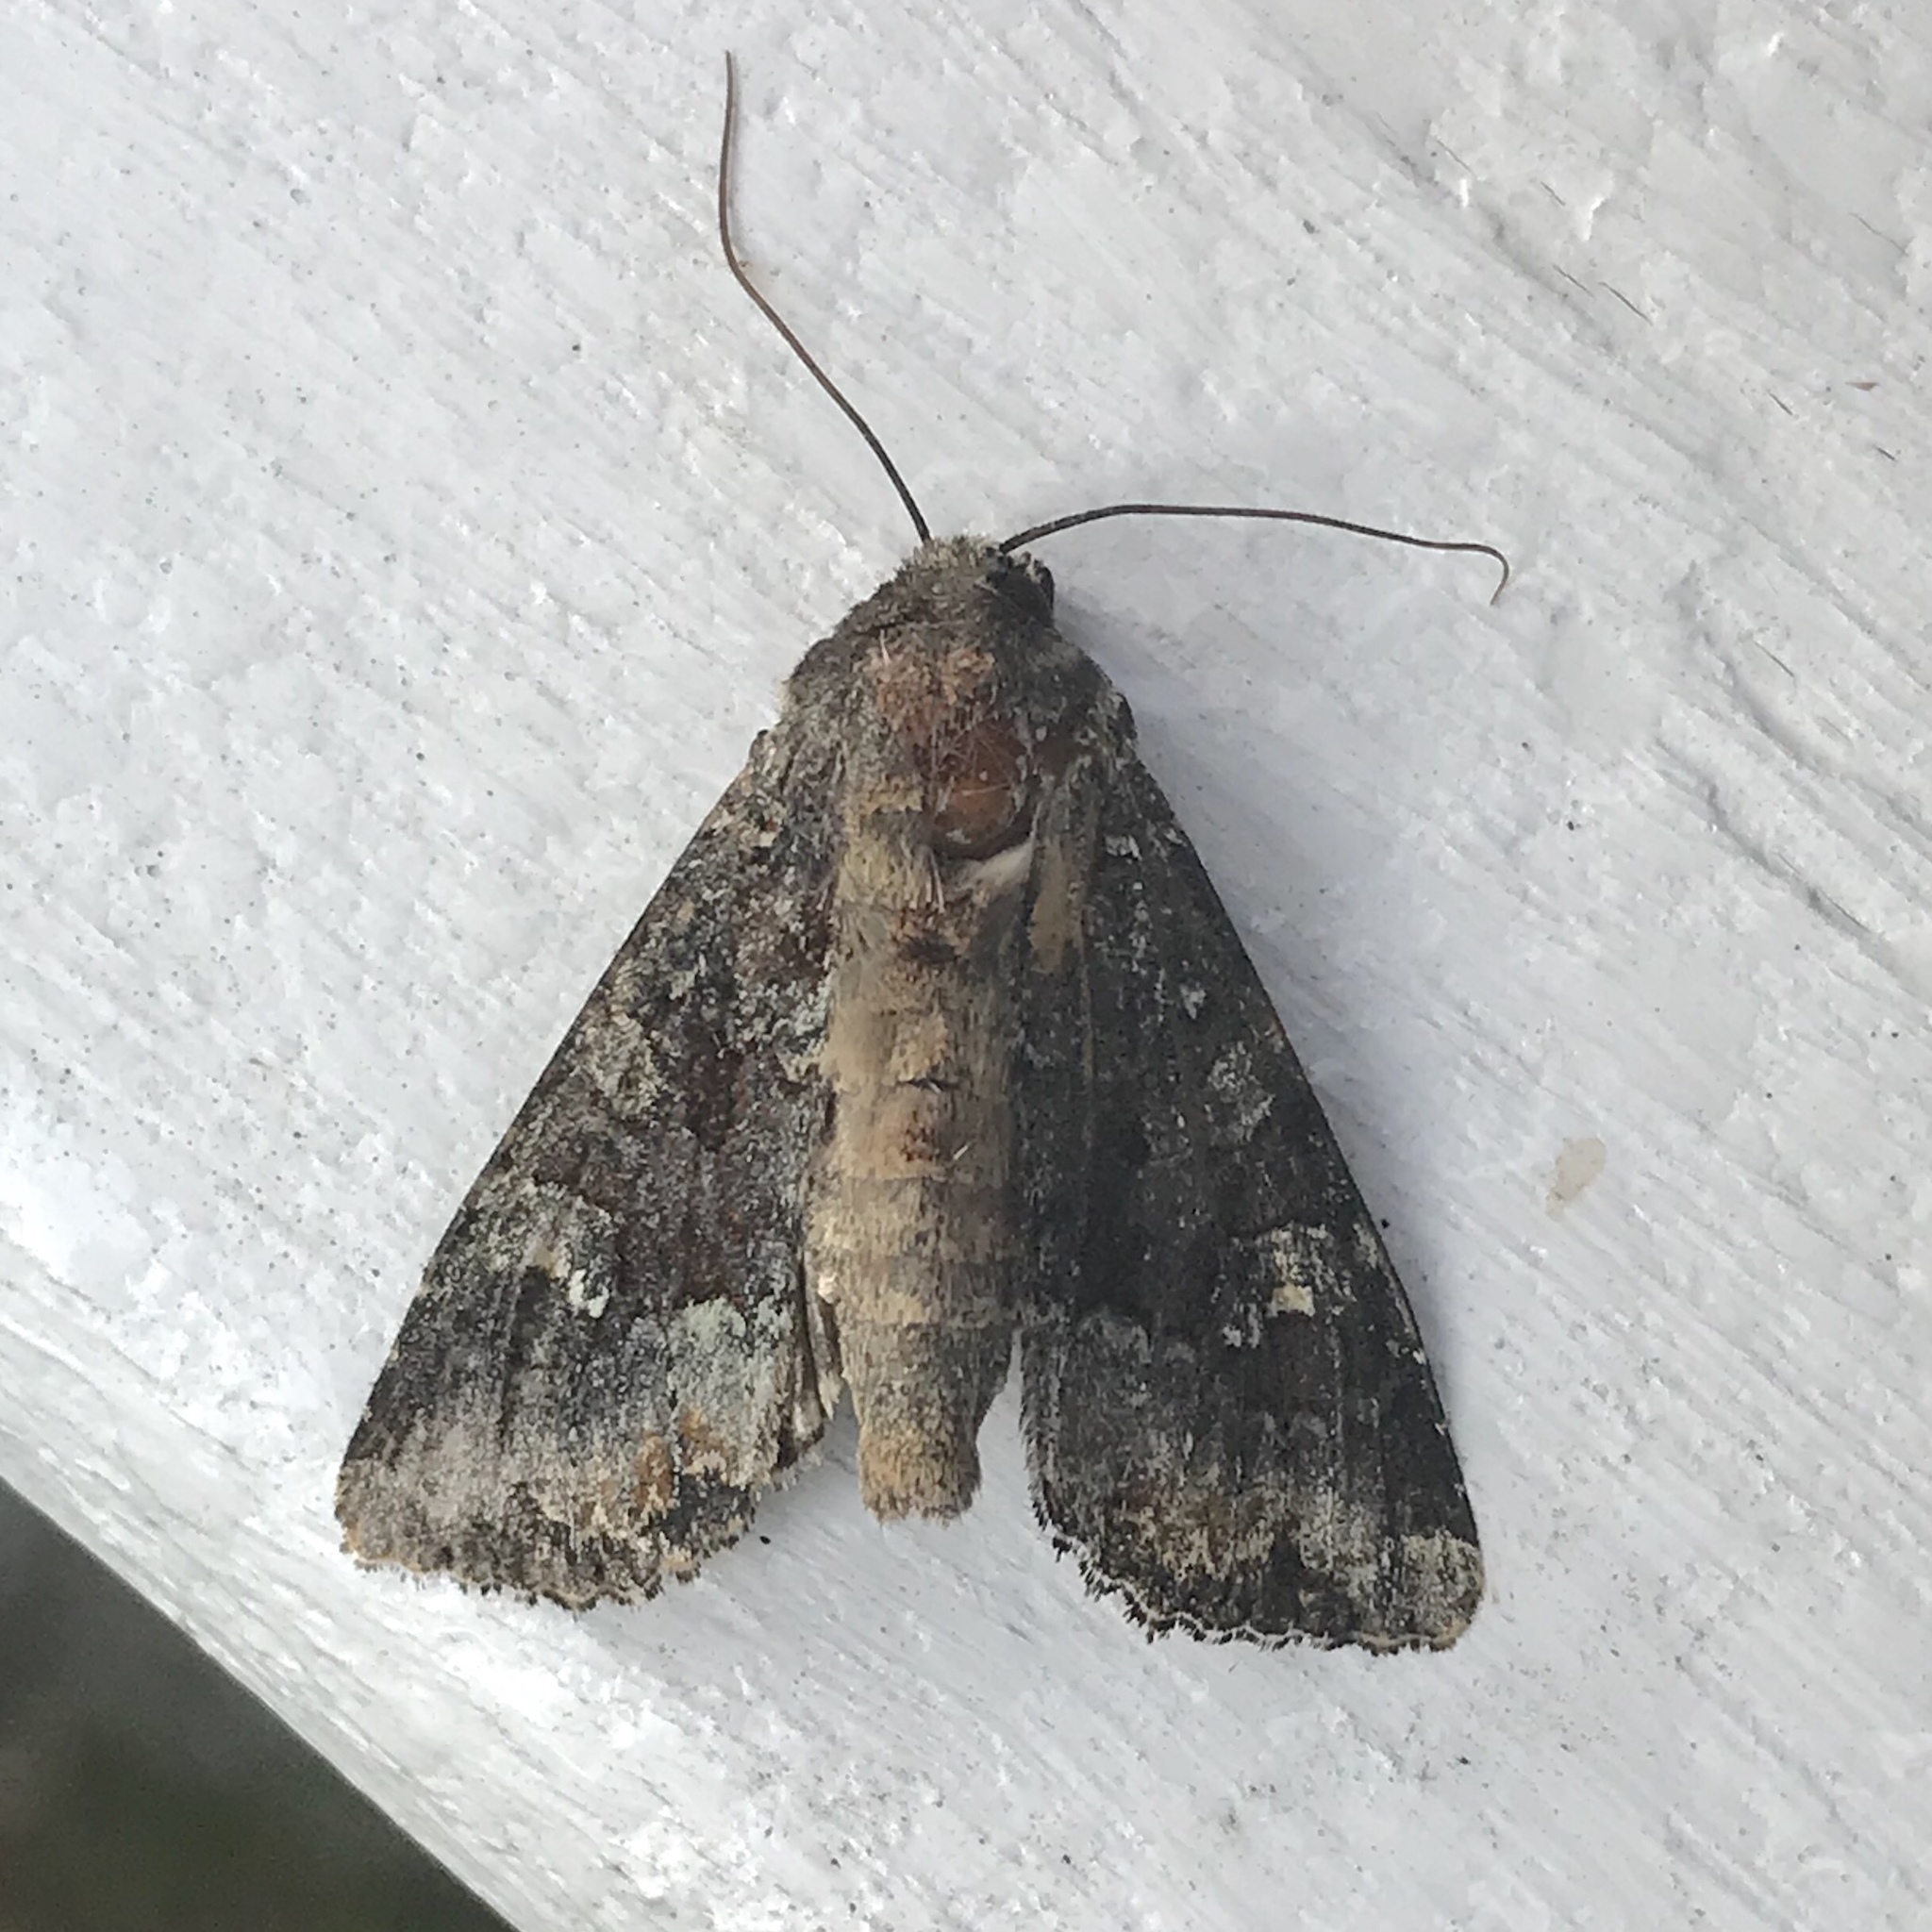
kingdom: Animalia
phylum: Arthropoda
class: Insecta
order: Lepidoptera
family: Noctuidae
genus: Apamea
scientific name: Apamea amputatrix
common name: Yellow-headed cutworm moth
